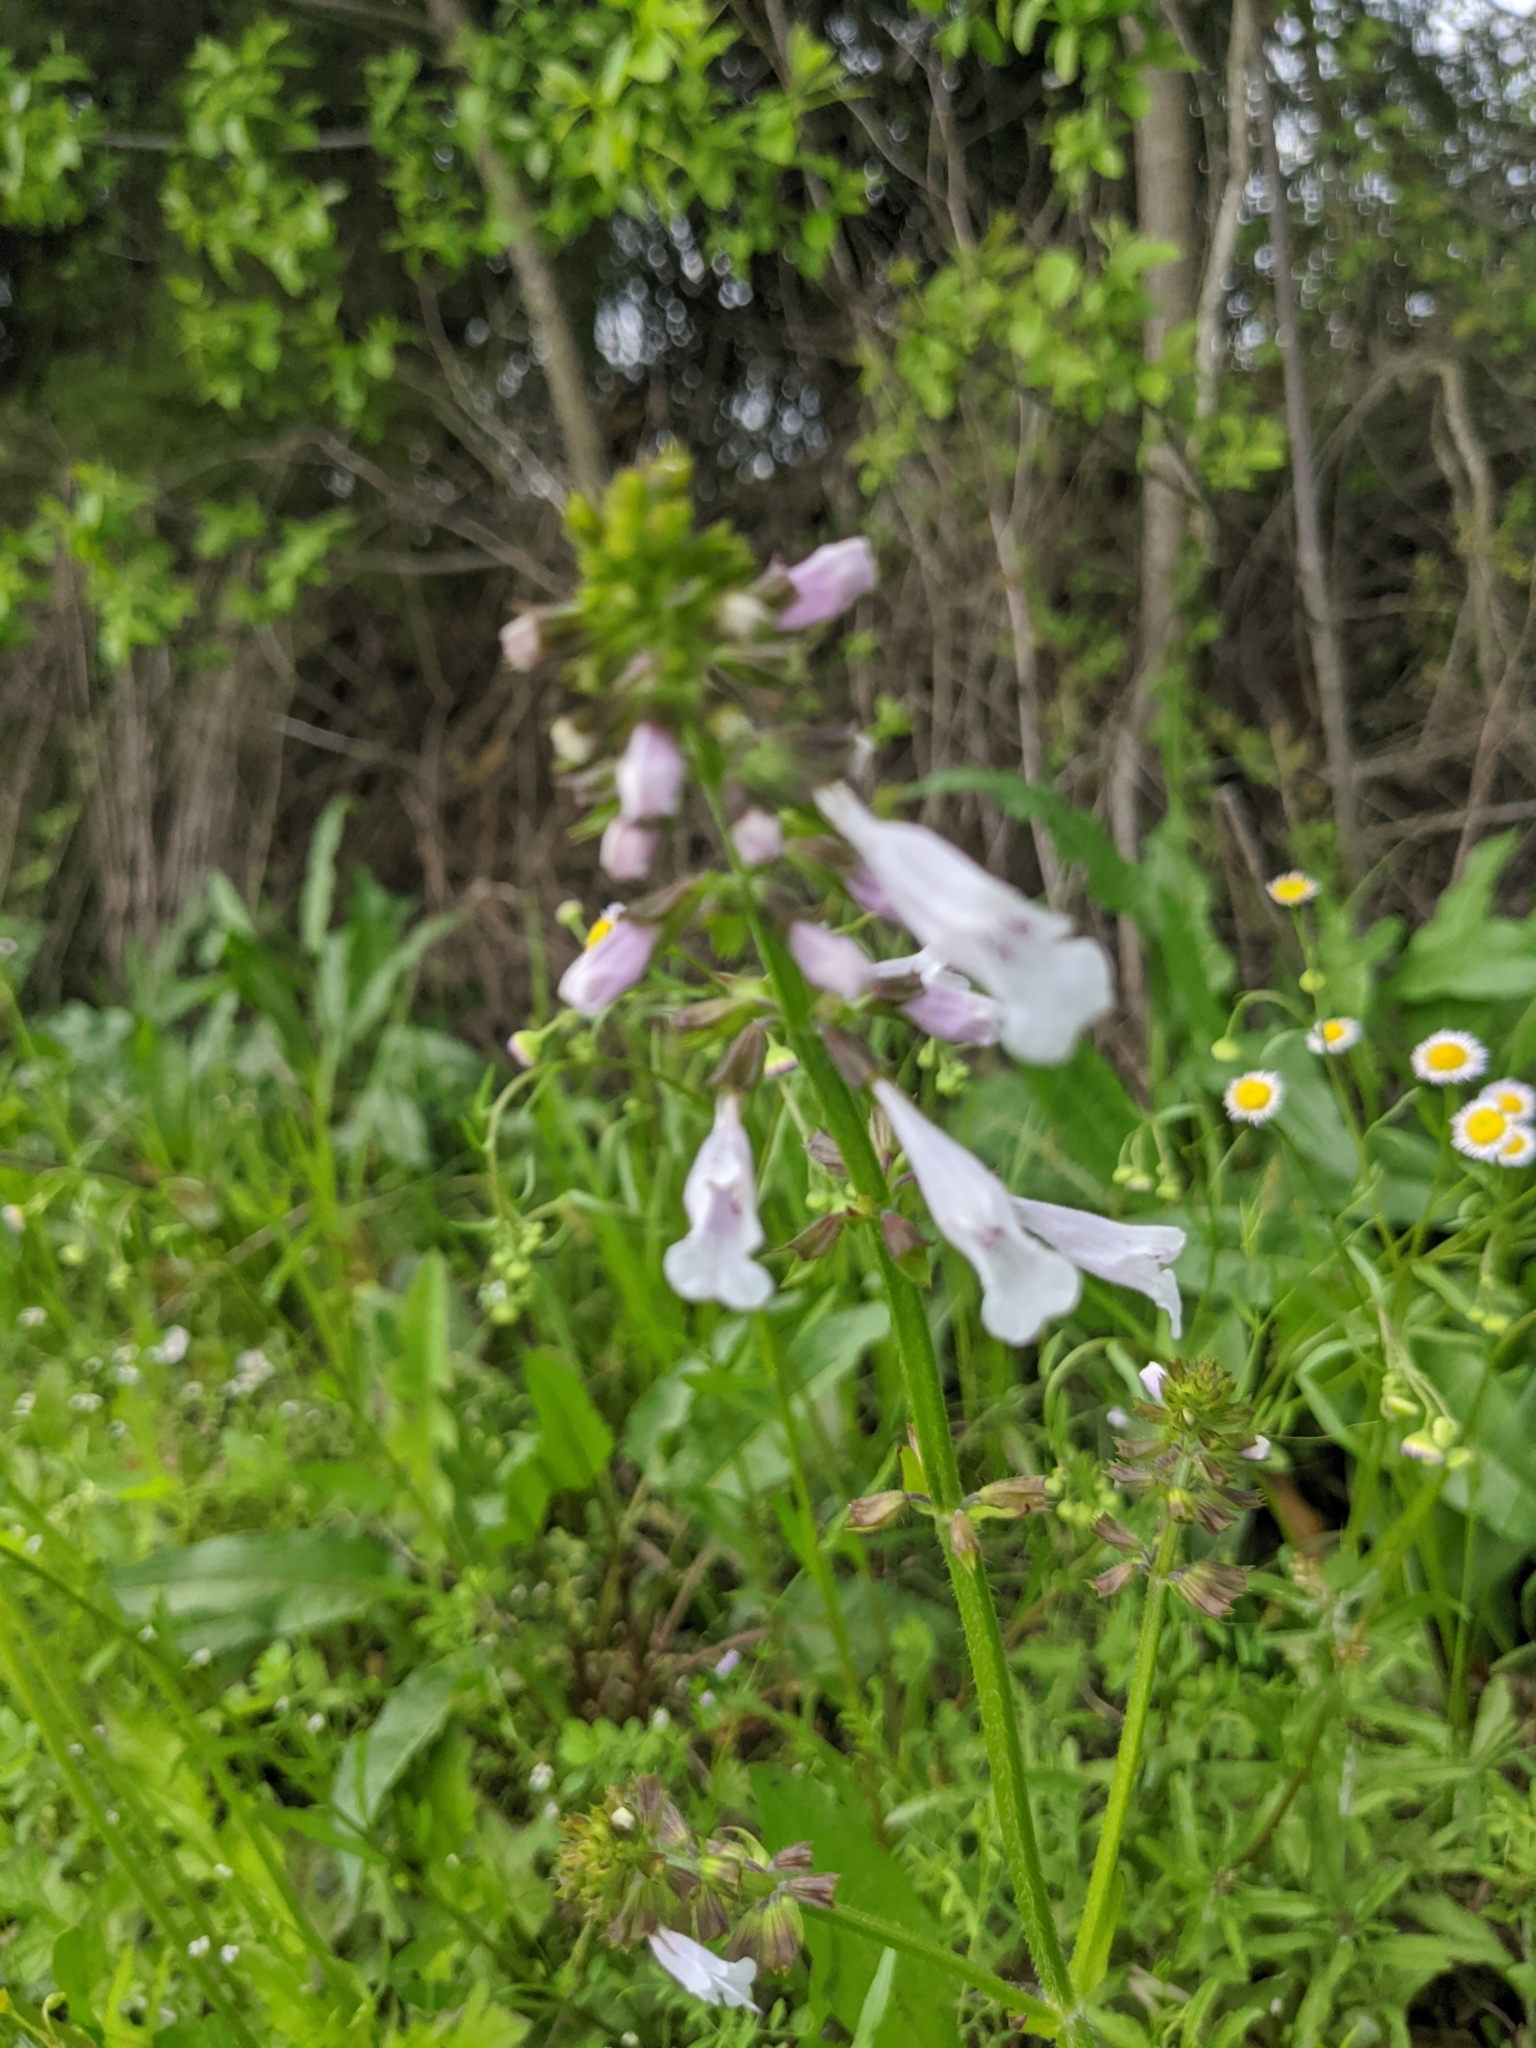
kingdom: Plantae
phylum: Tracheophyta
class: Magnoliopsida
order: Lamiales
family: Lamiaceae
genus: Salvia
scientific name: Salvia lyrata
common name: Cancerweed
